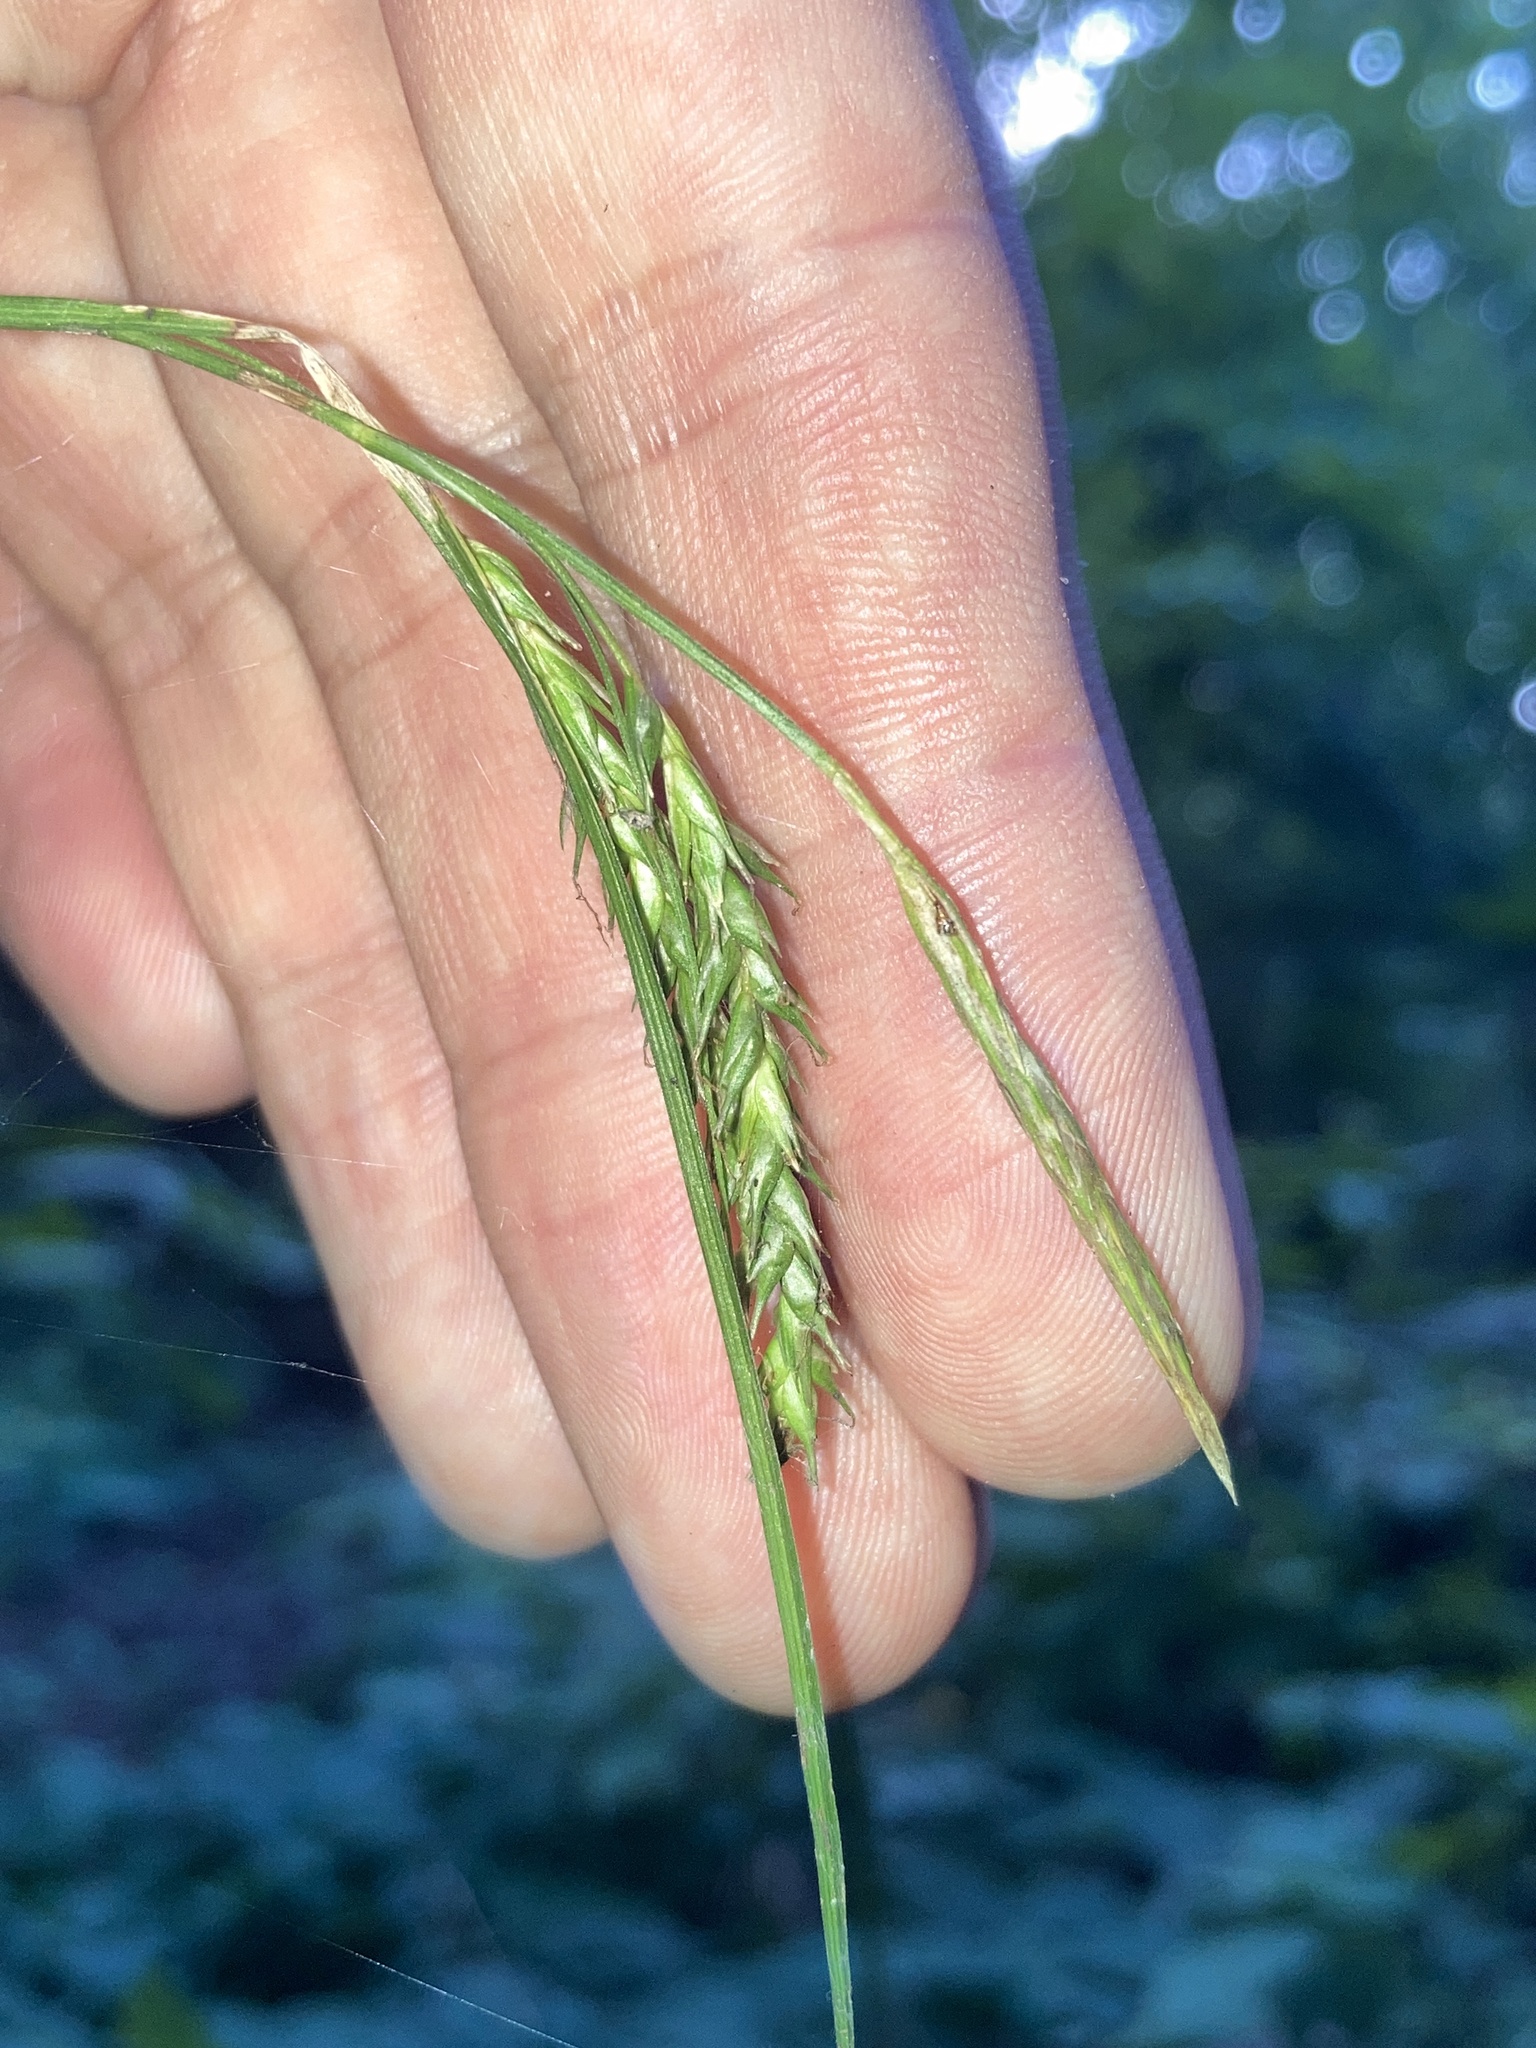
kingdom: Plantae
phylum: Tracheophyta
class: Liliopsida
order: Poales
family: Cyperaceae
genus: Carex
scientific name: Carex sylvatica
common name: Wood-sedge
